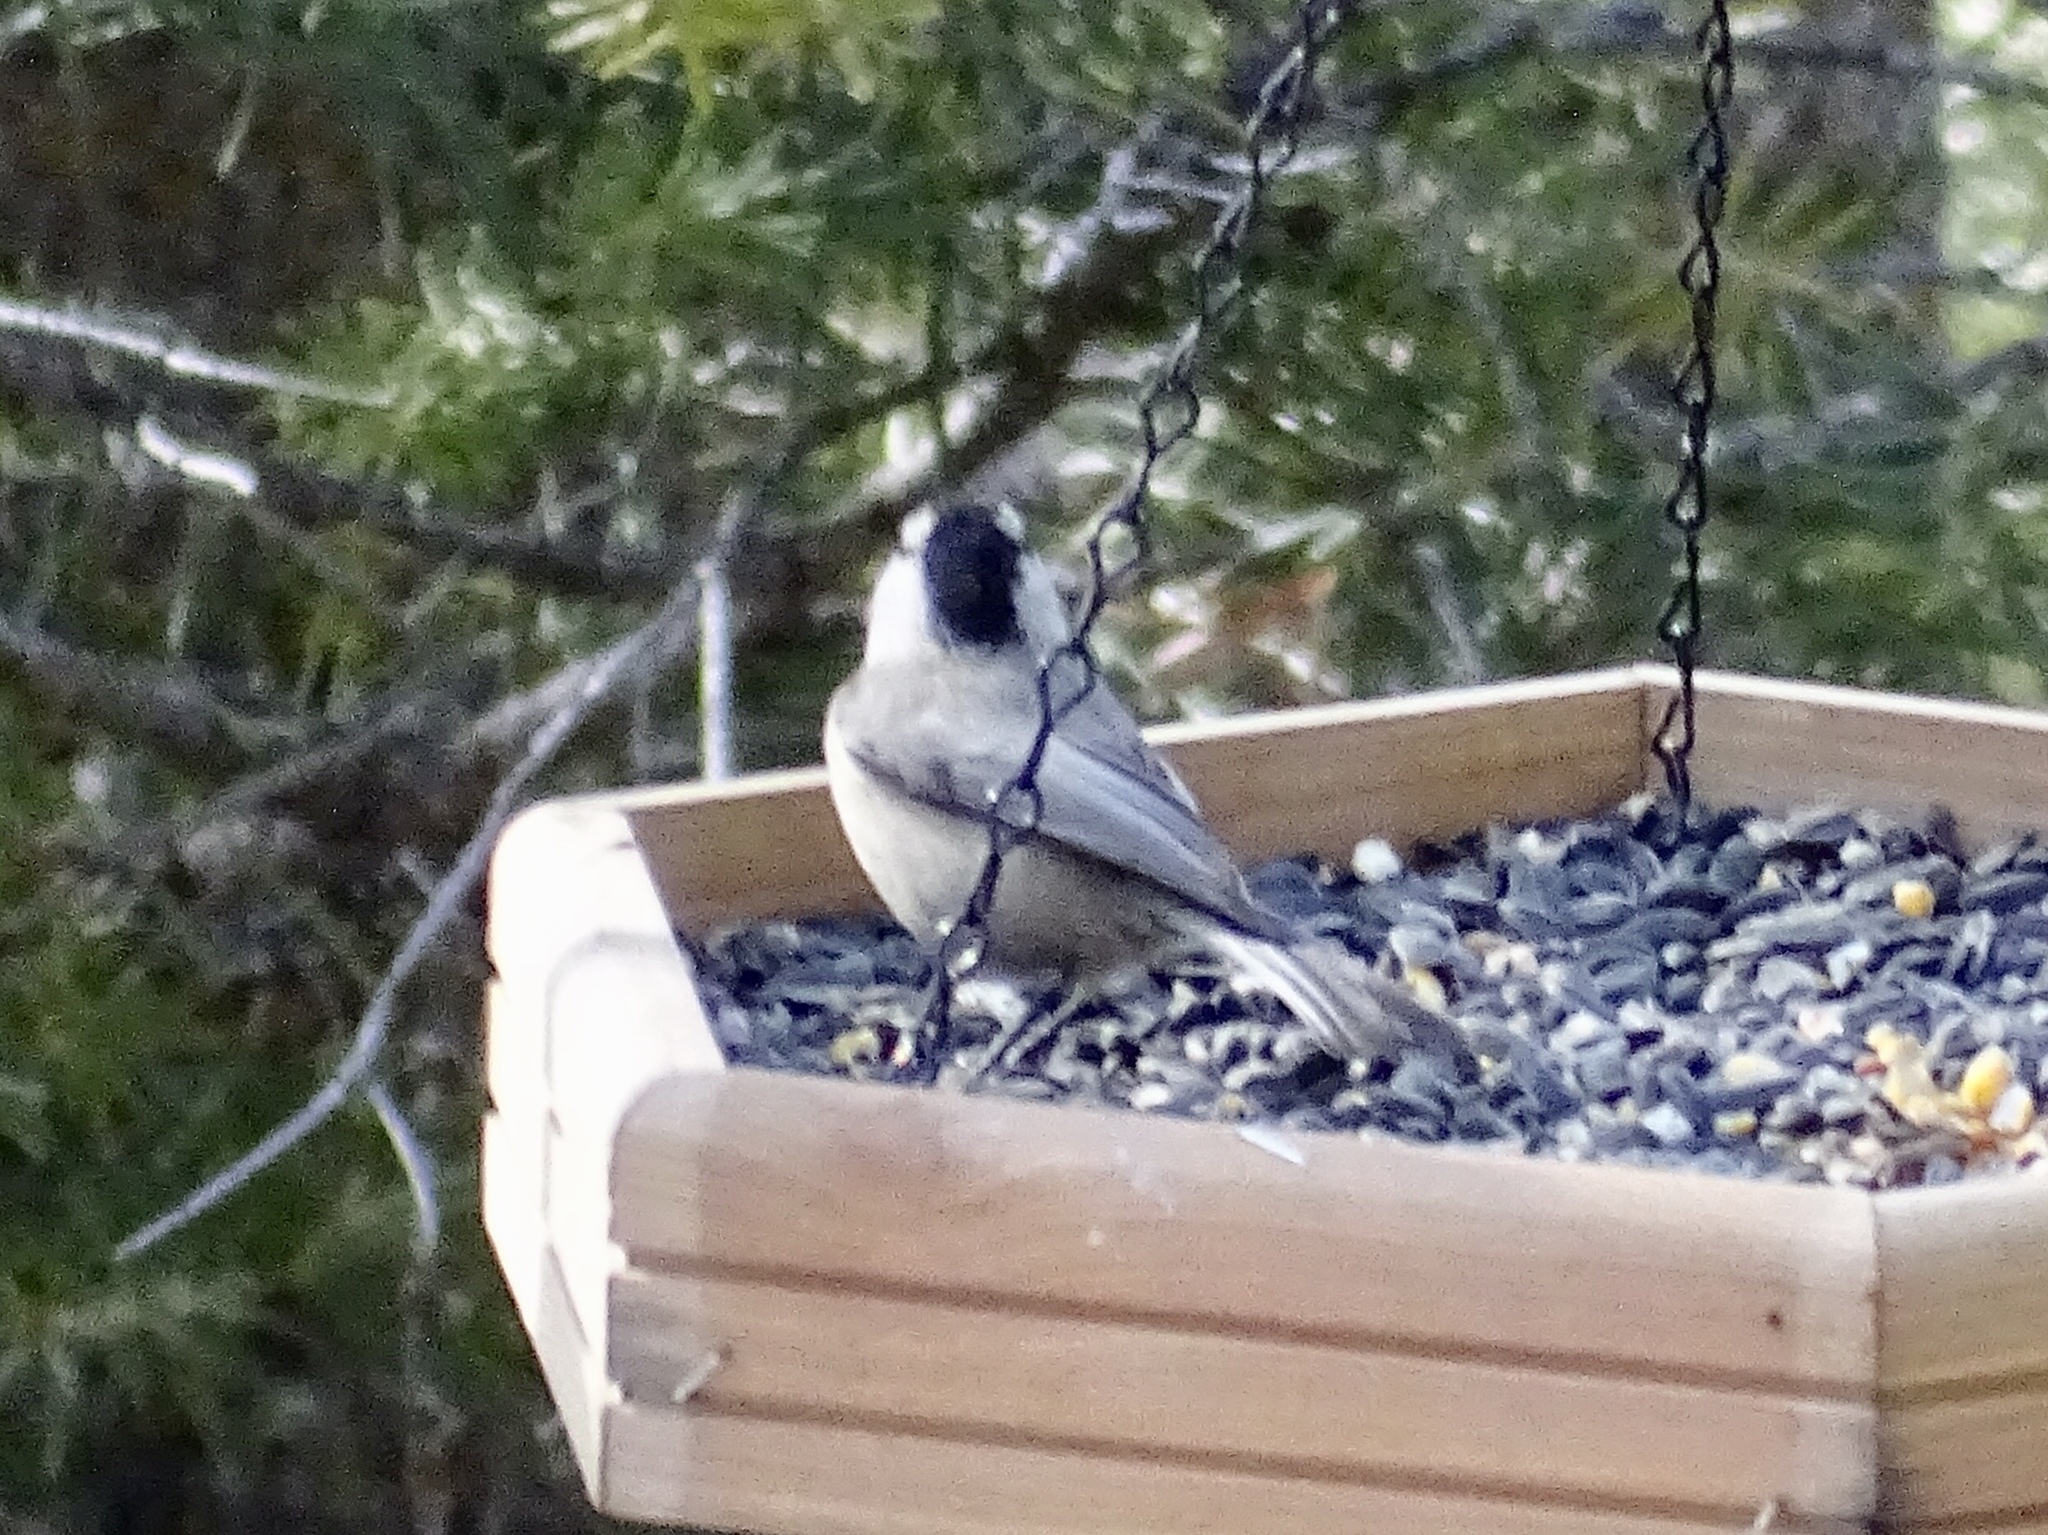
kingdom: Animalia
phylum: Chordata
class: Aves
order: Passeriformes
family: Paridae
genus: Poecile
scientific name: Poecile gambeli
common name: Mountain chickadee
